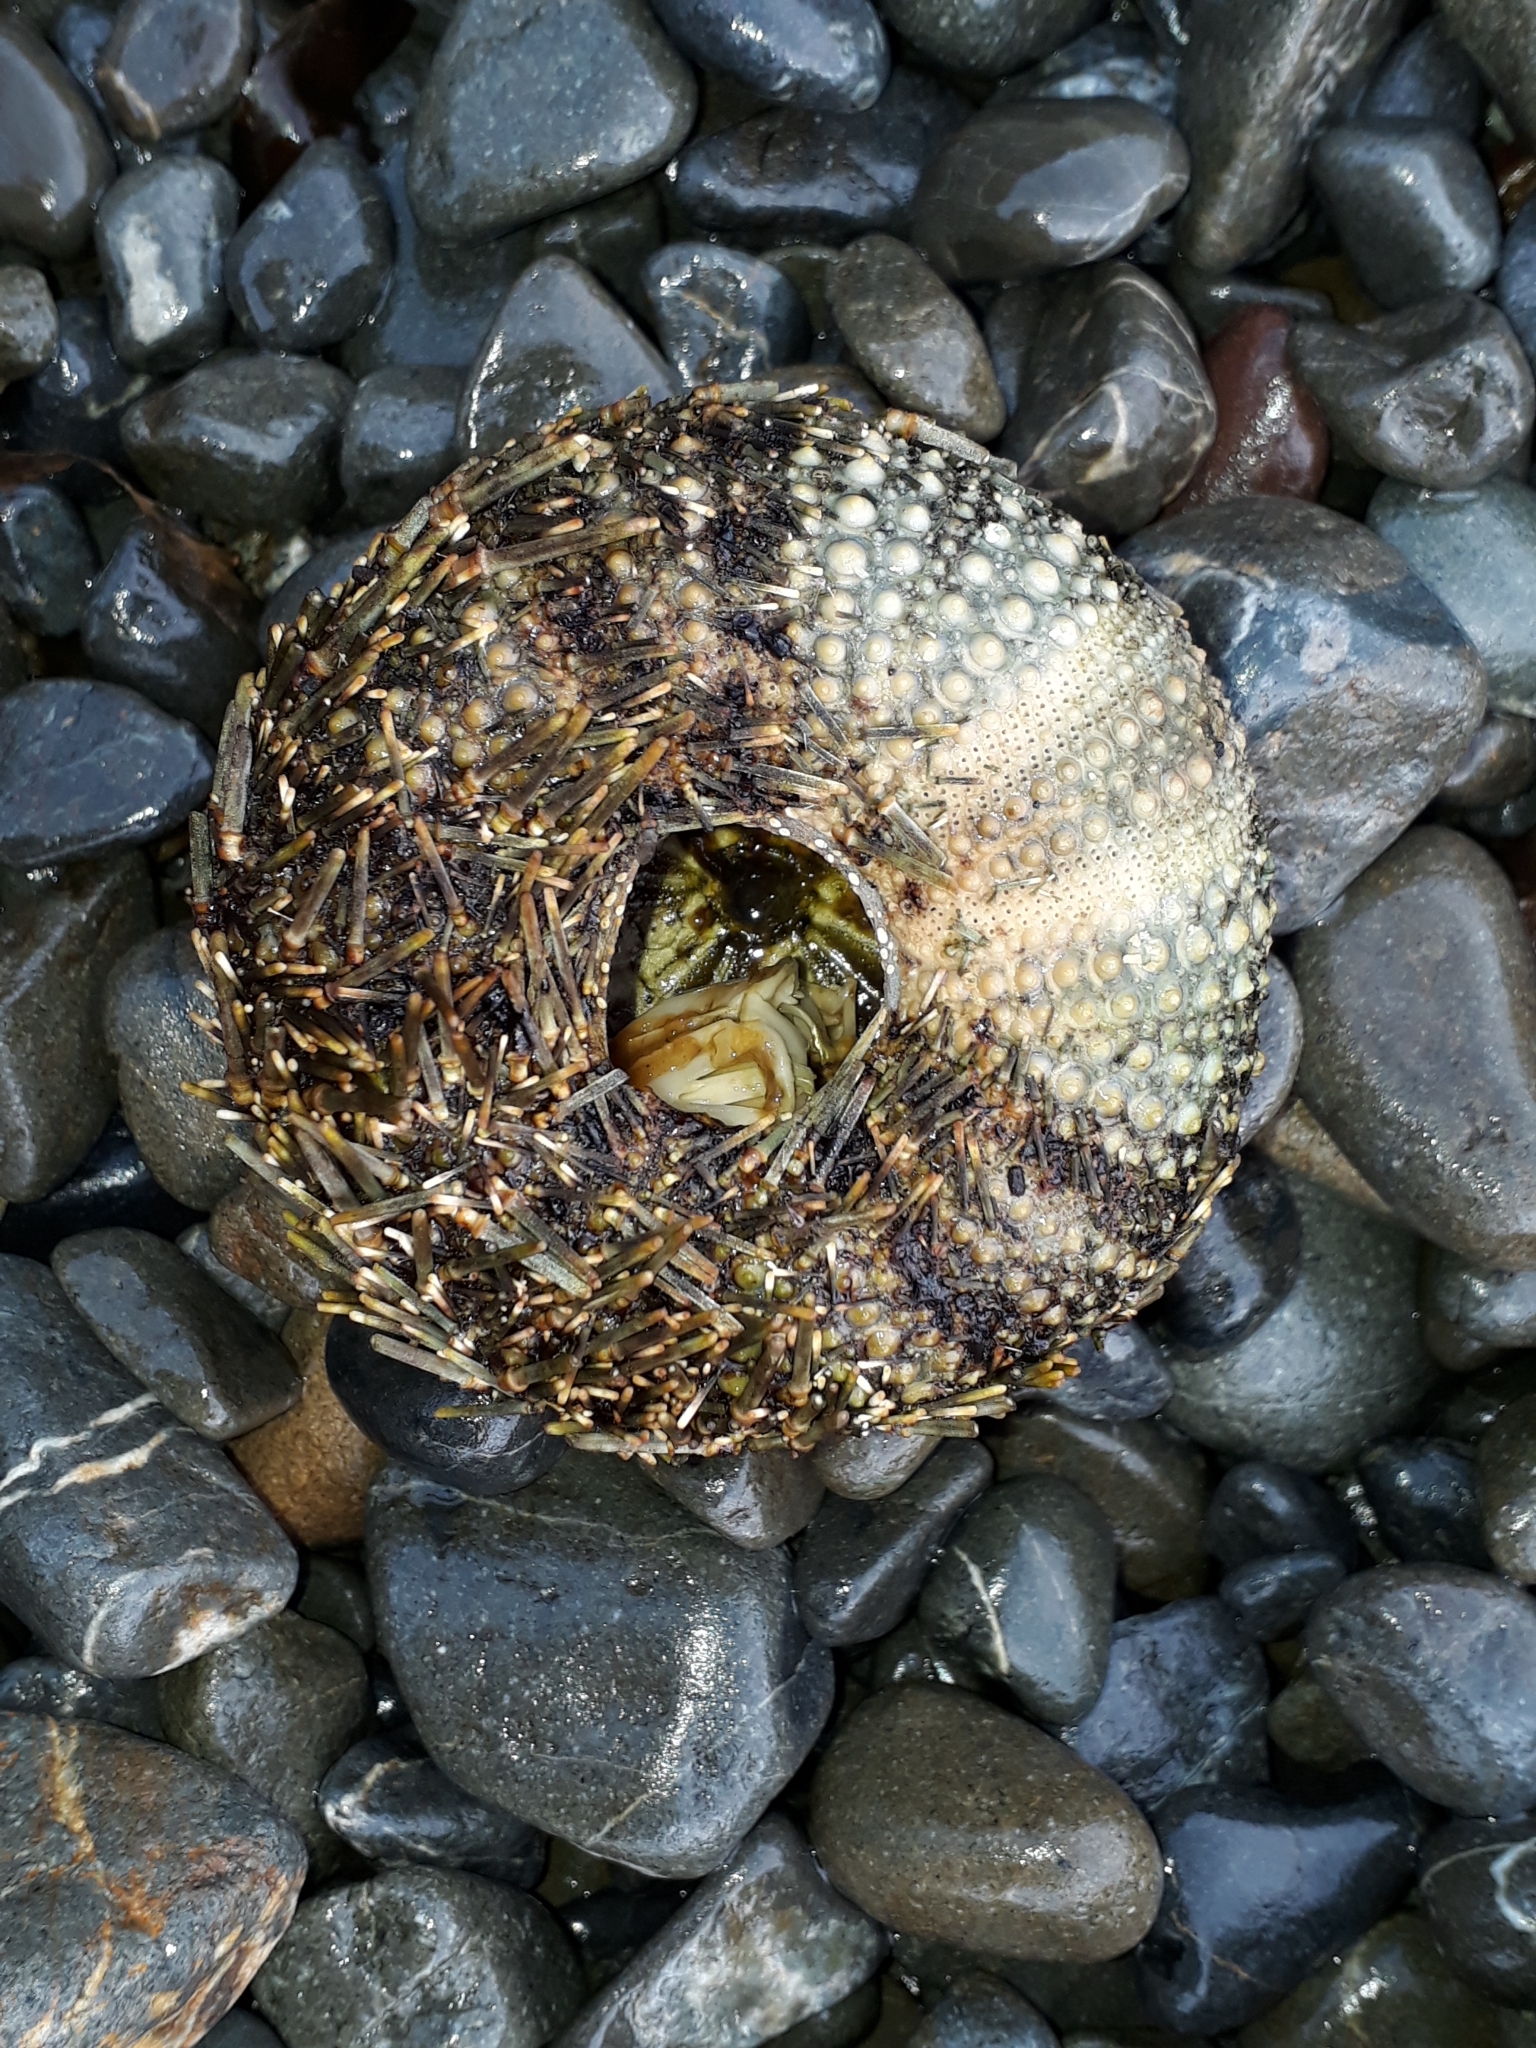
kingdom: Animalia
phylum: Echinodermata
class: Echinoidea
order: Camarodonta
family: Echinometridae
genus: Evechinus
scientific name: Evechinus chloroticus
